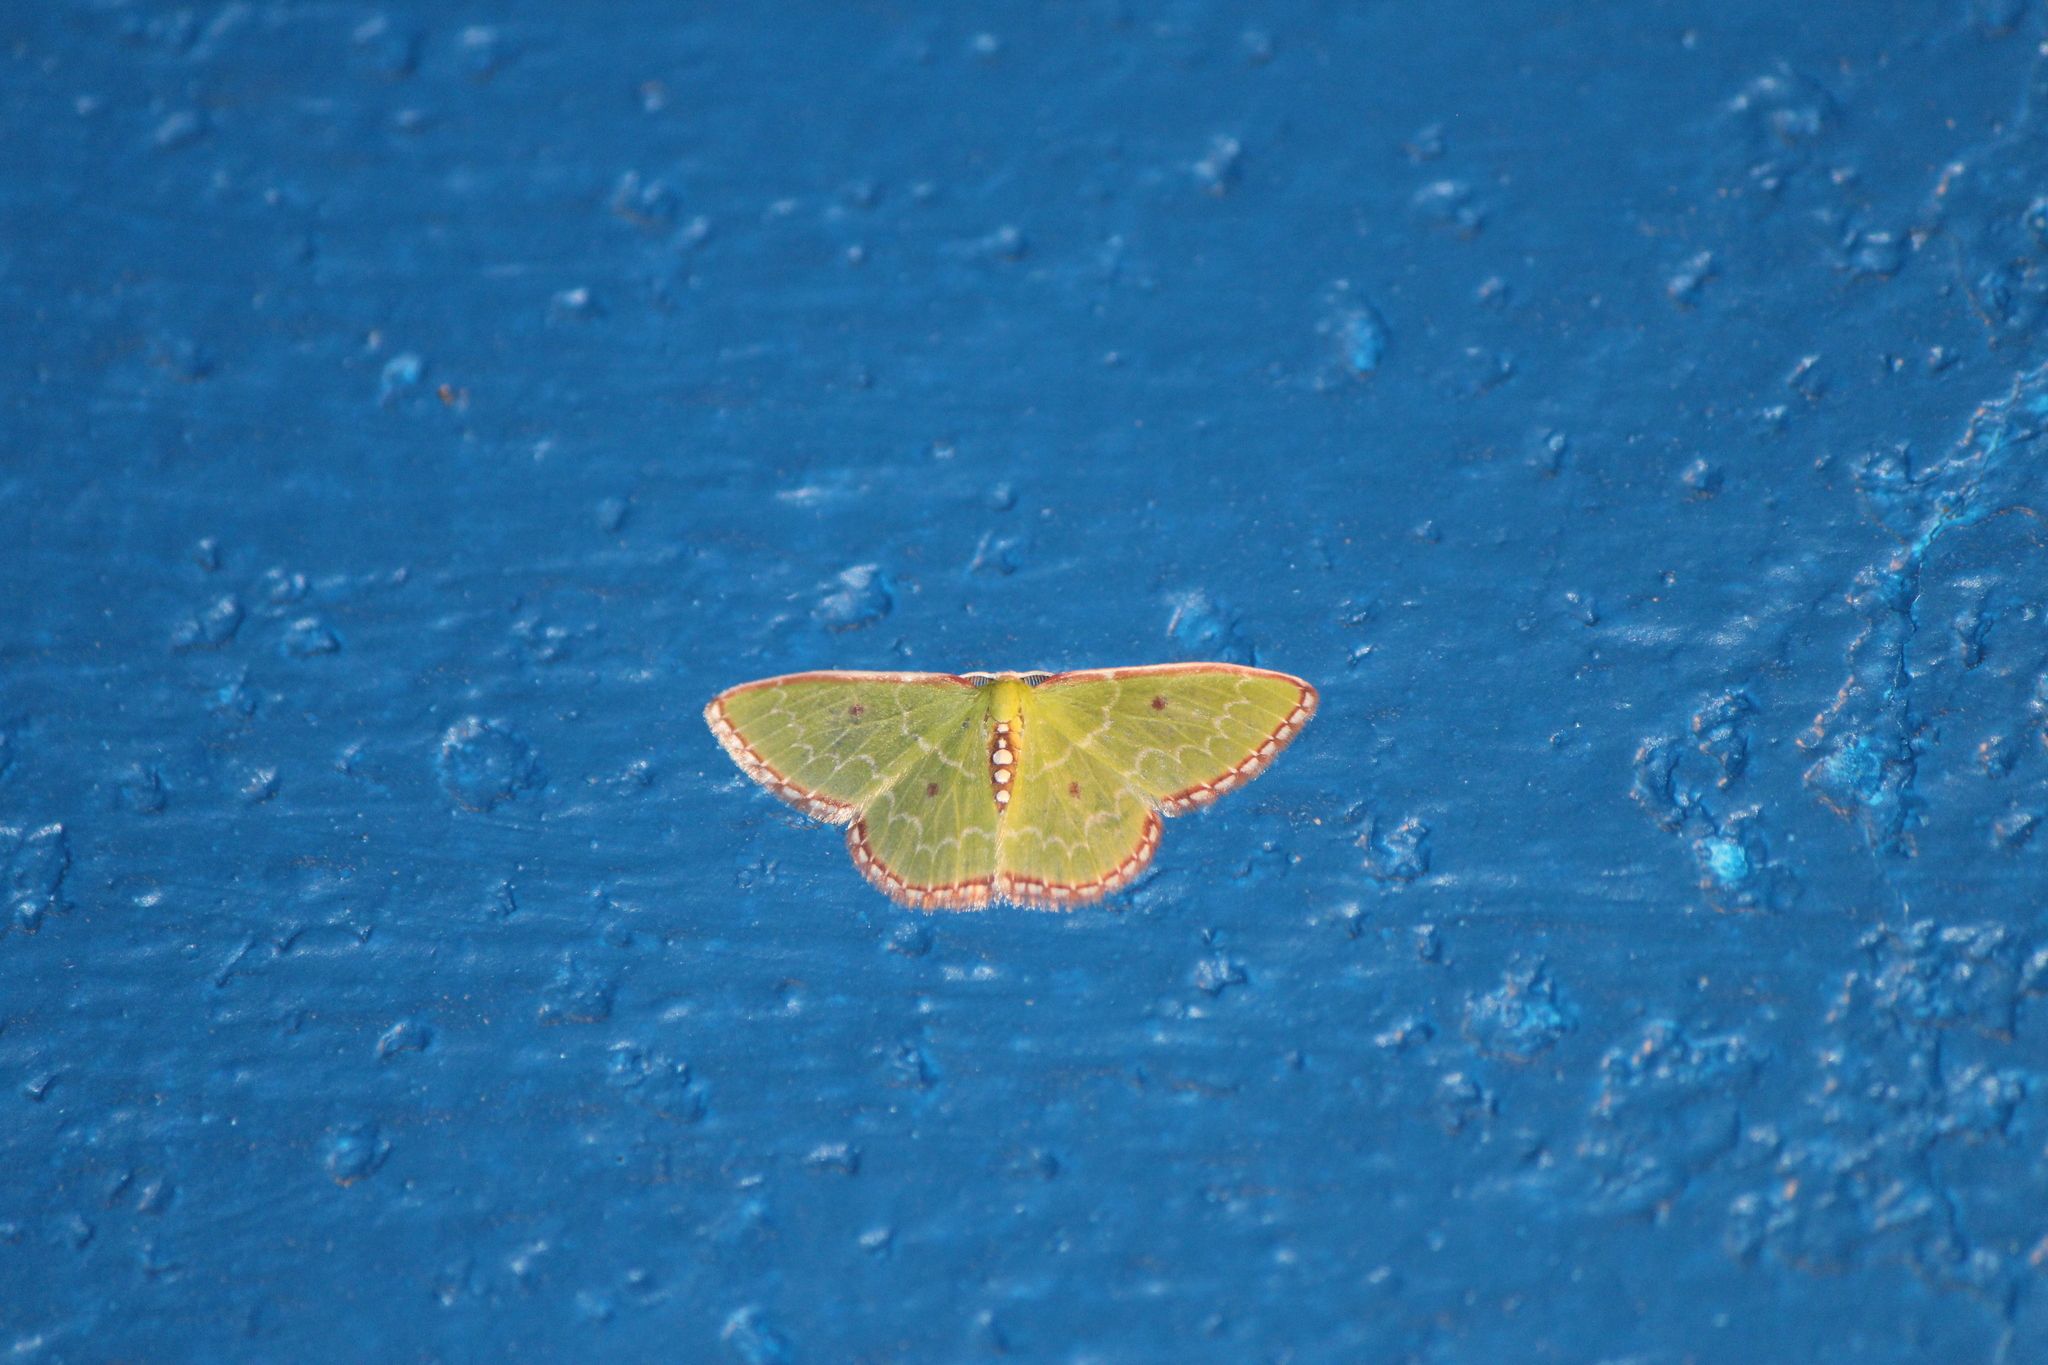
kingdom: Animalia
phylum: Arthropoda
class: Insecta
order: Lepidoptera
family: Geometridae
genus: Nemoria
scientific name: Nemoria lixaria
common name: Red-bordered emerald
